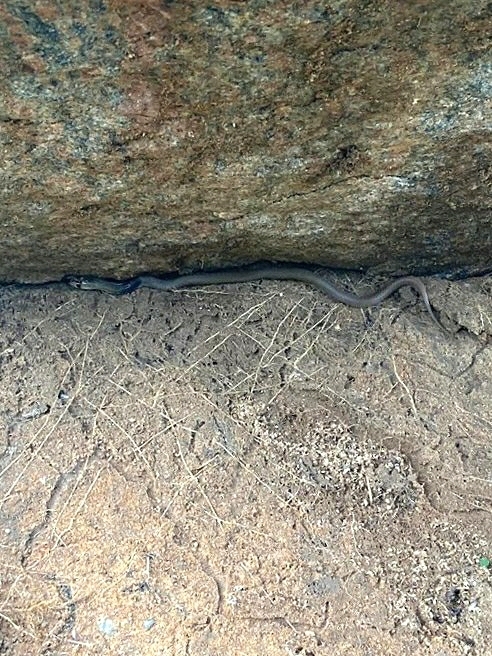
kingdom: Animalia
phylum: Chordata
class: Squamata
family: Elapidae
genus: Naja
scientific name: Naja naja
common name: Indian cobra
